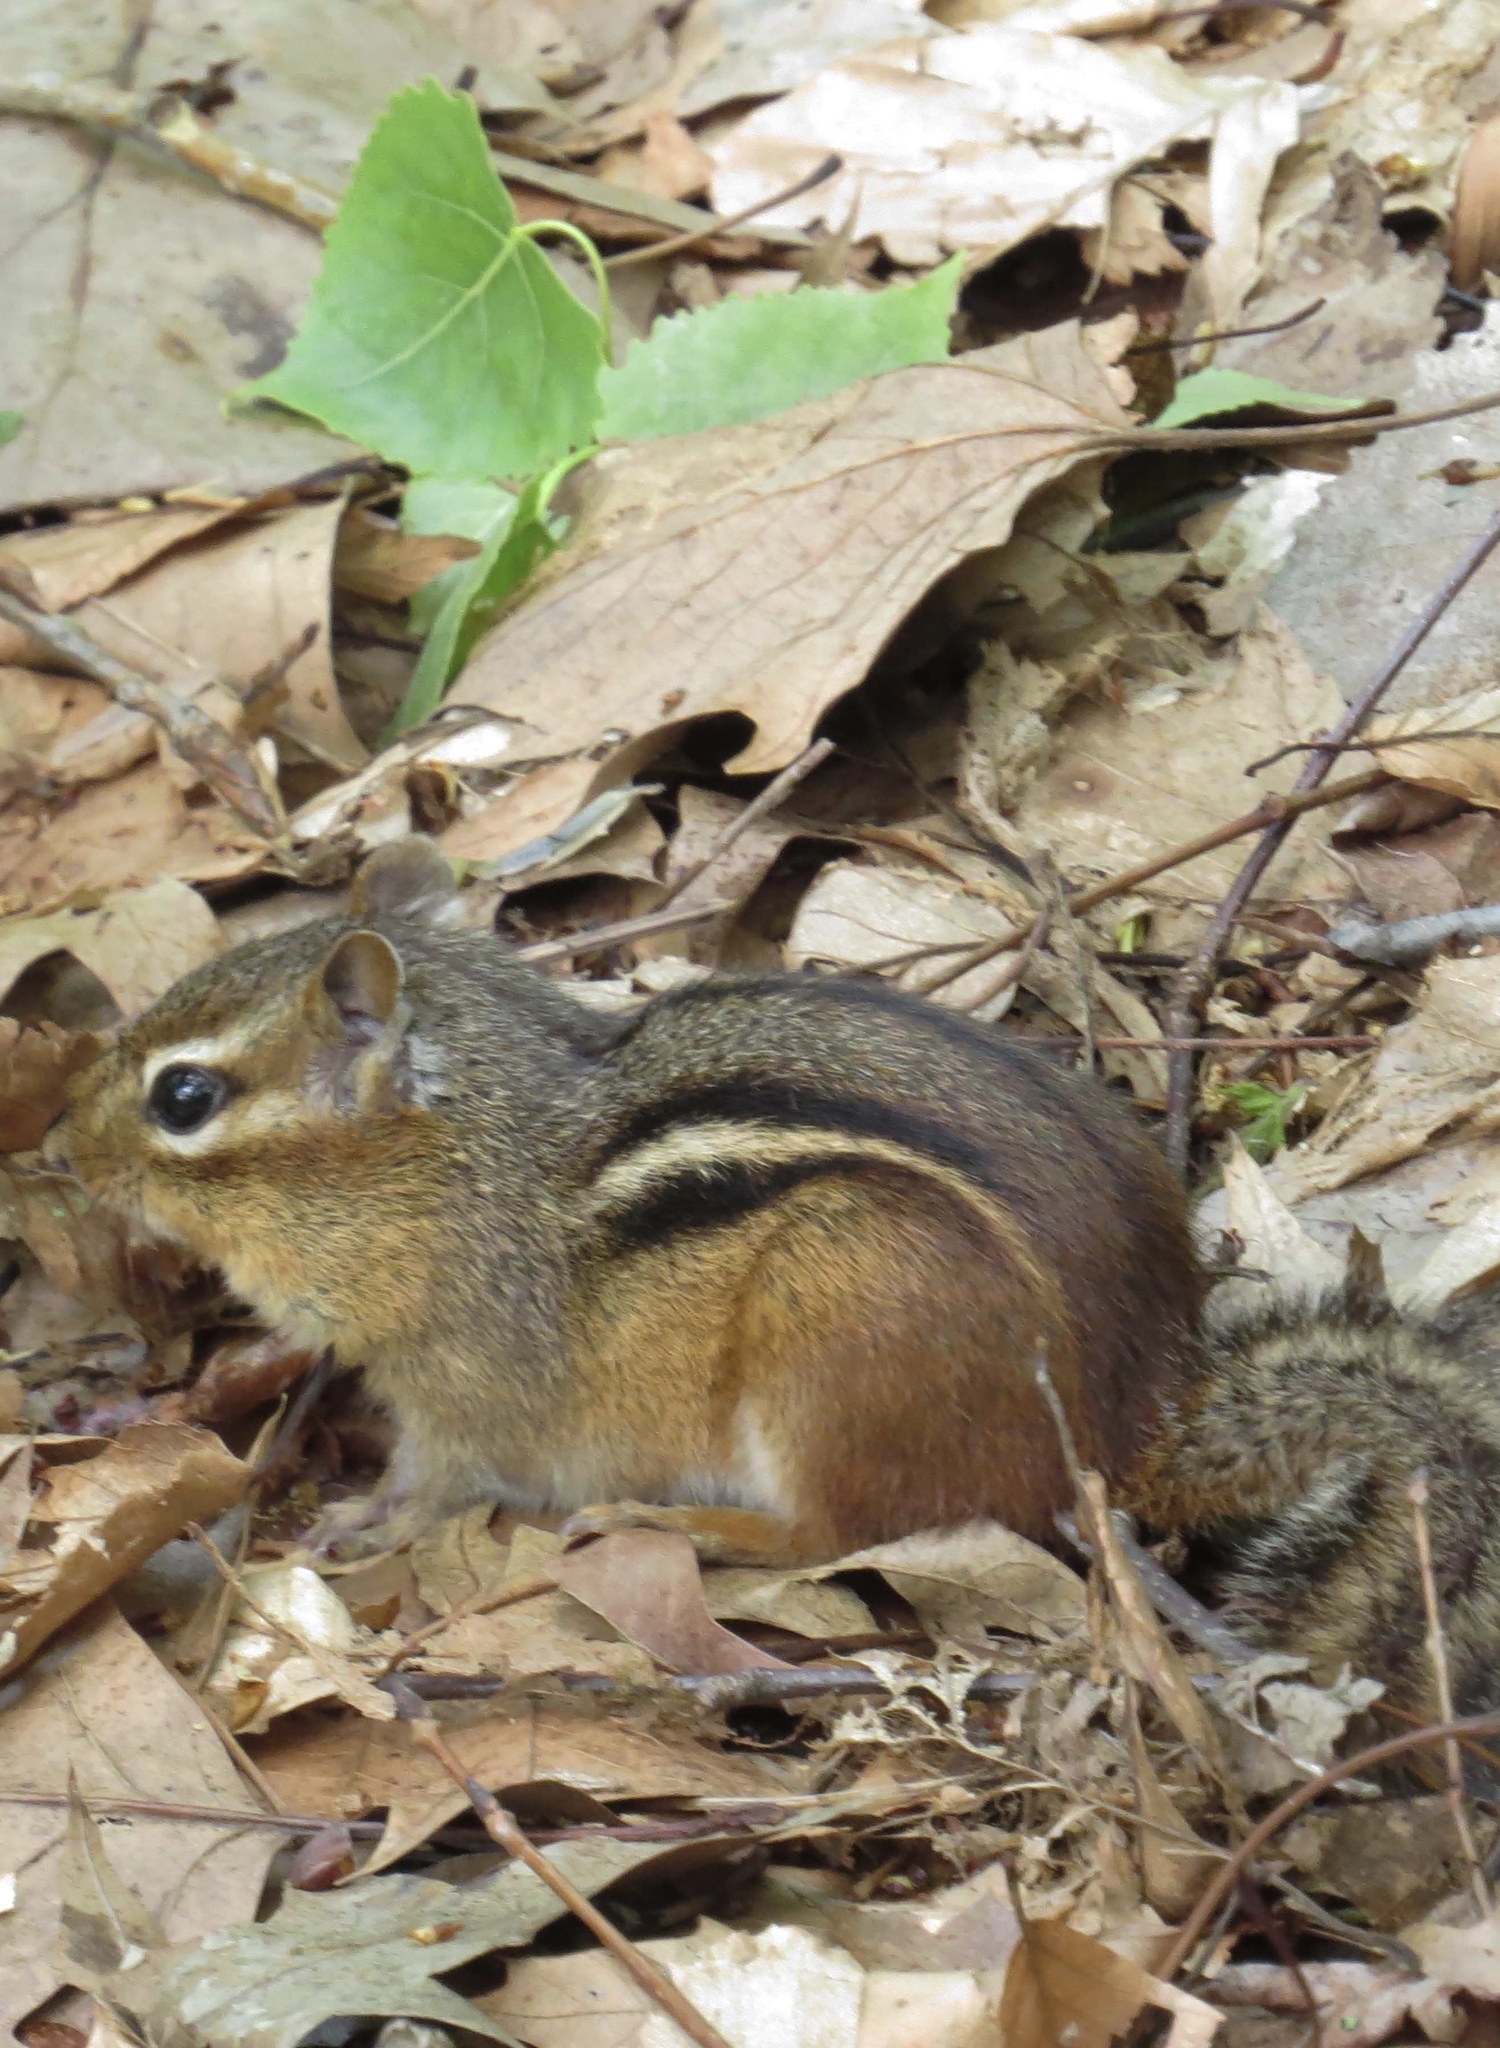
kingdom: Animalia
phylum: Chordata
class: Mammalia
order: Rodentia
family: Sciuridae
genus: Tamias
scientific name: Tamias striatus
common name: Eastern chipmunk
